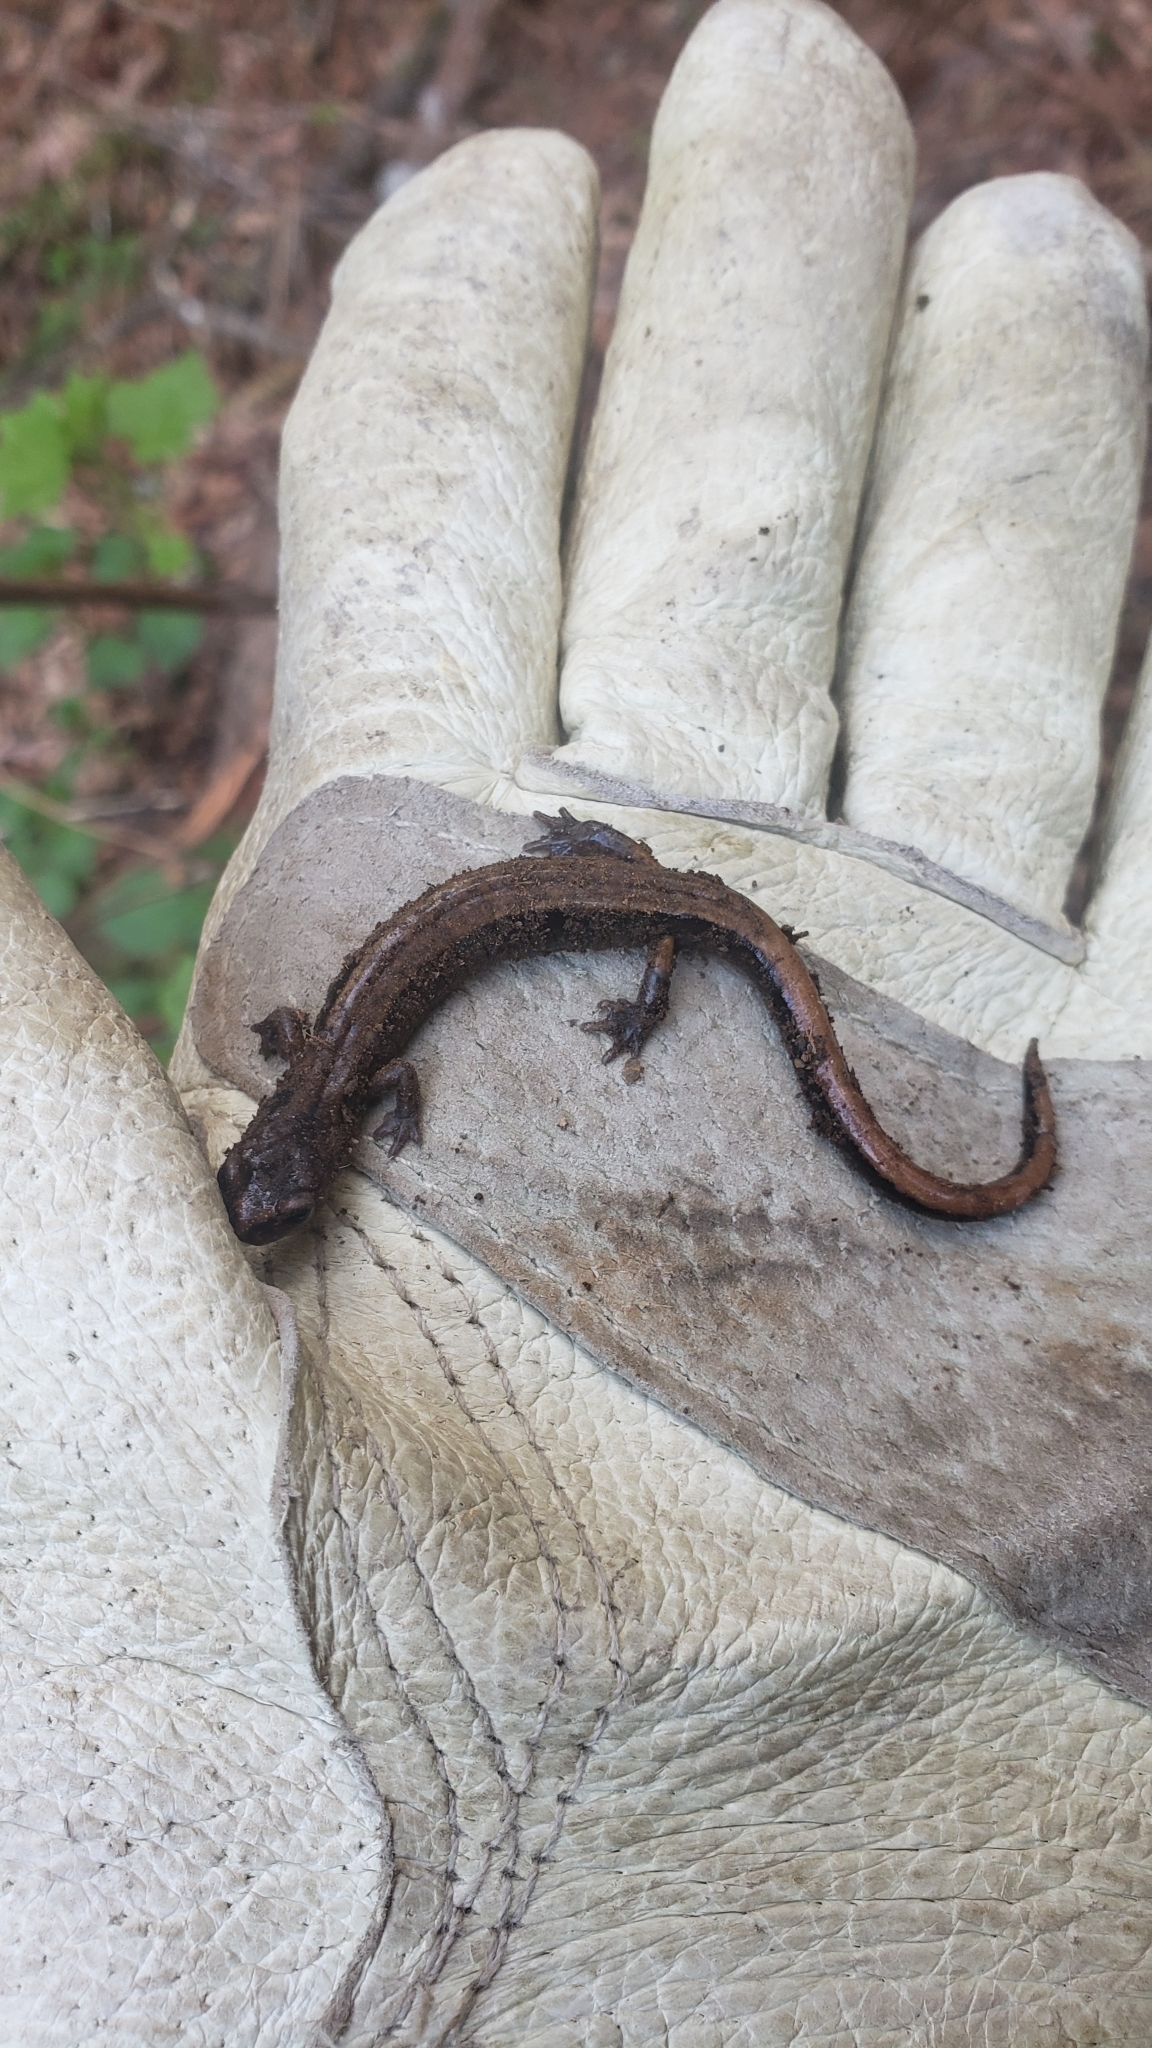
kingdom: Animalia
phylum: Chordata
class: Amphibia
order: Caudata
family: Plethodontidae
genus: Plethodon
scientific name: Plethodon vehiculum
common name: Western red-backed salamander
